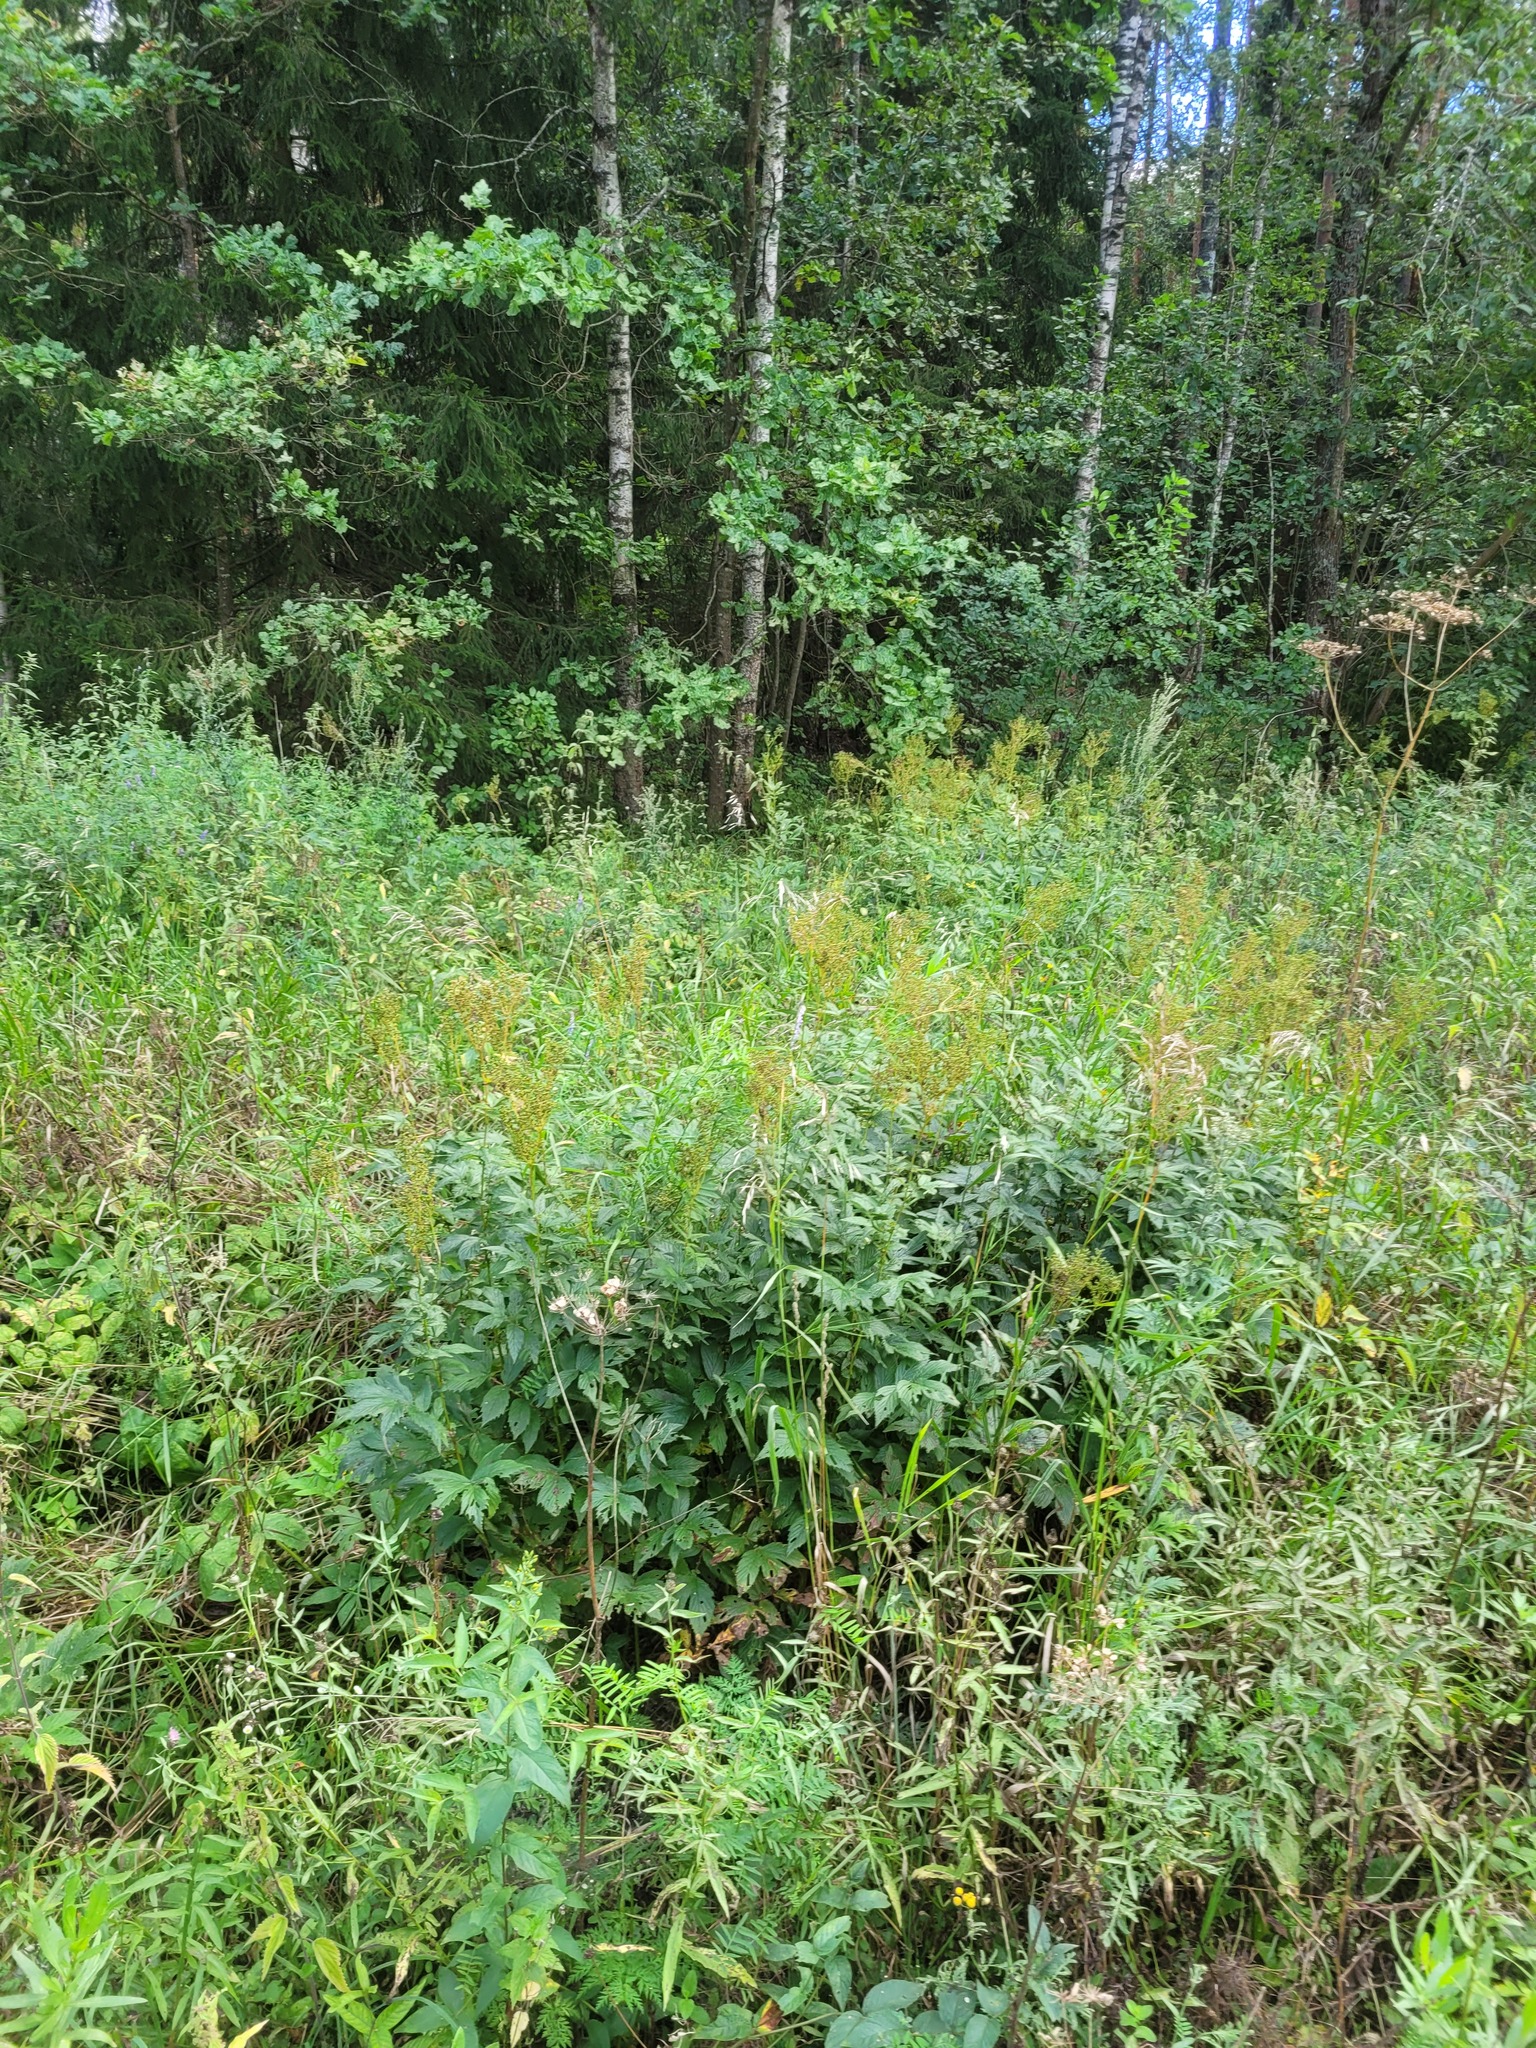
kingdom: Plantae
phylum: Tracheophyta
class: Magnoliopsida
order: Rosales
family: Rosaceae
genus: Filipendula
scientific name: Filipendula ulmaria
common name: Meadowsweet
